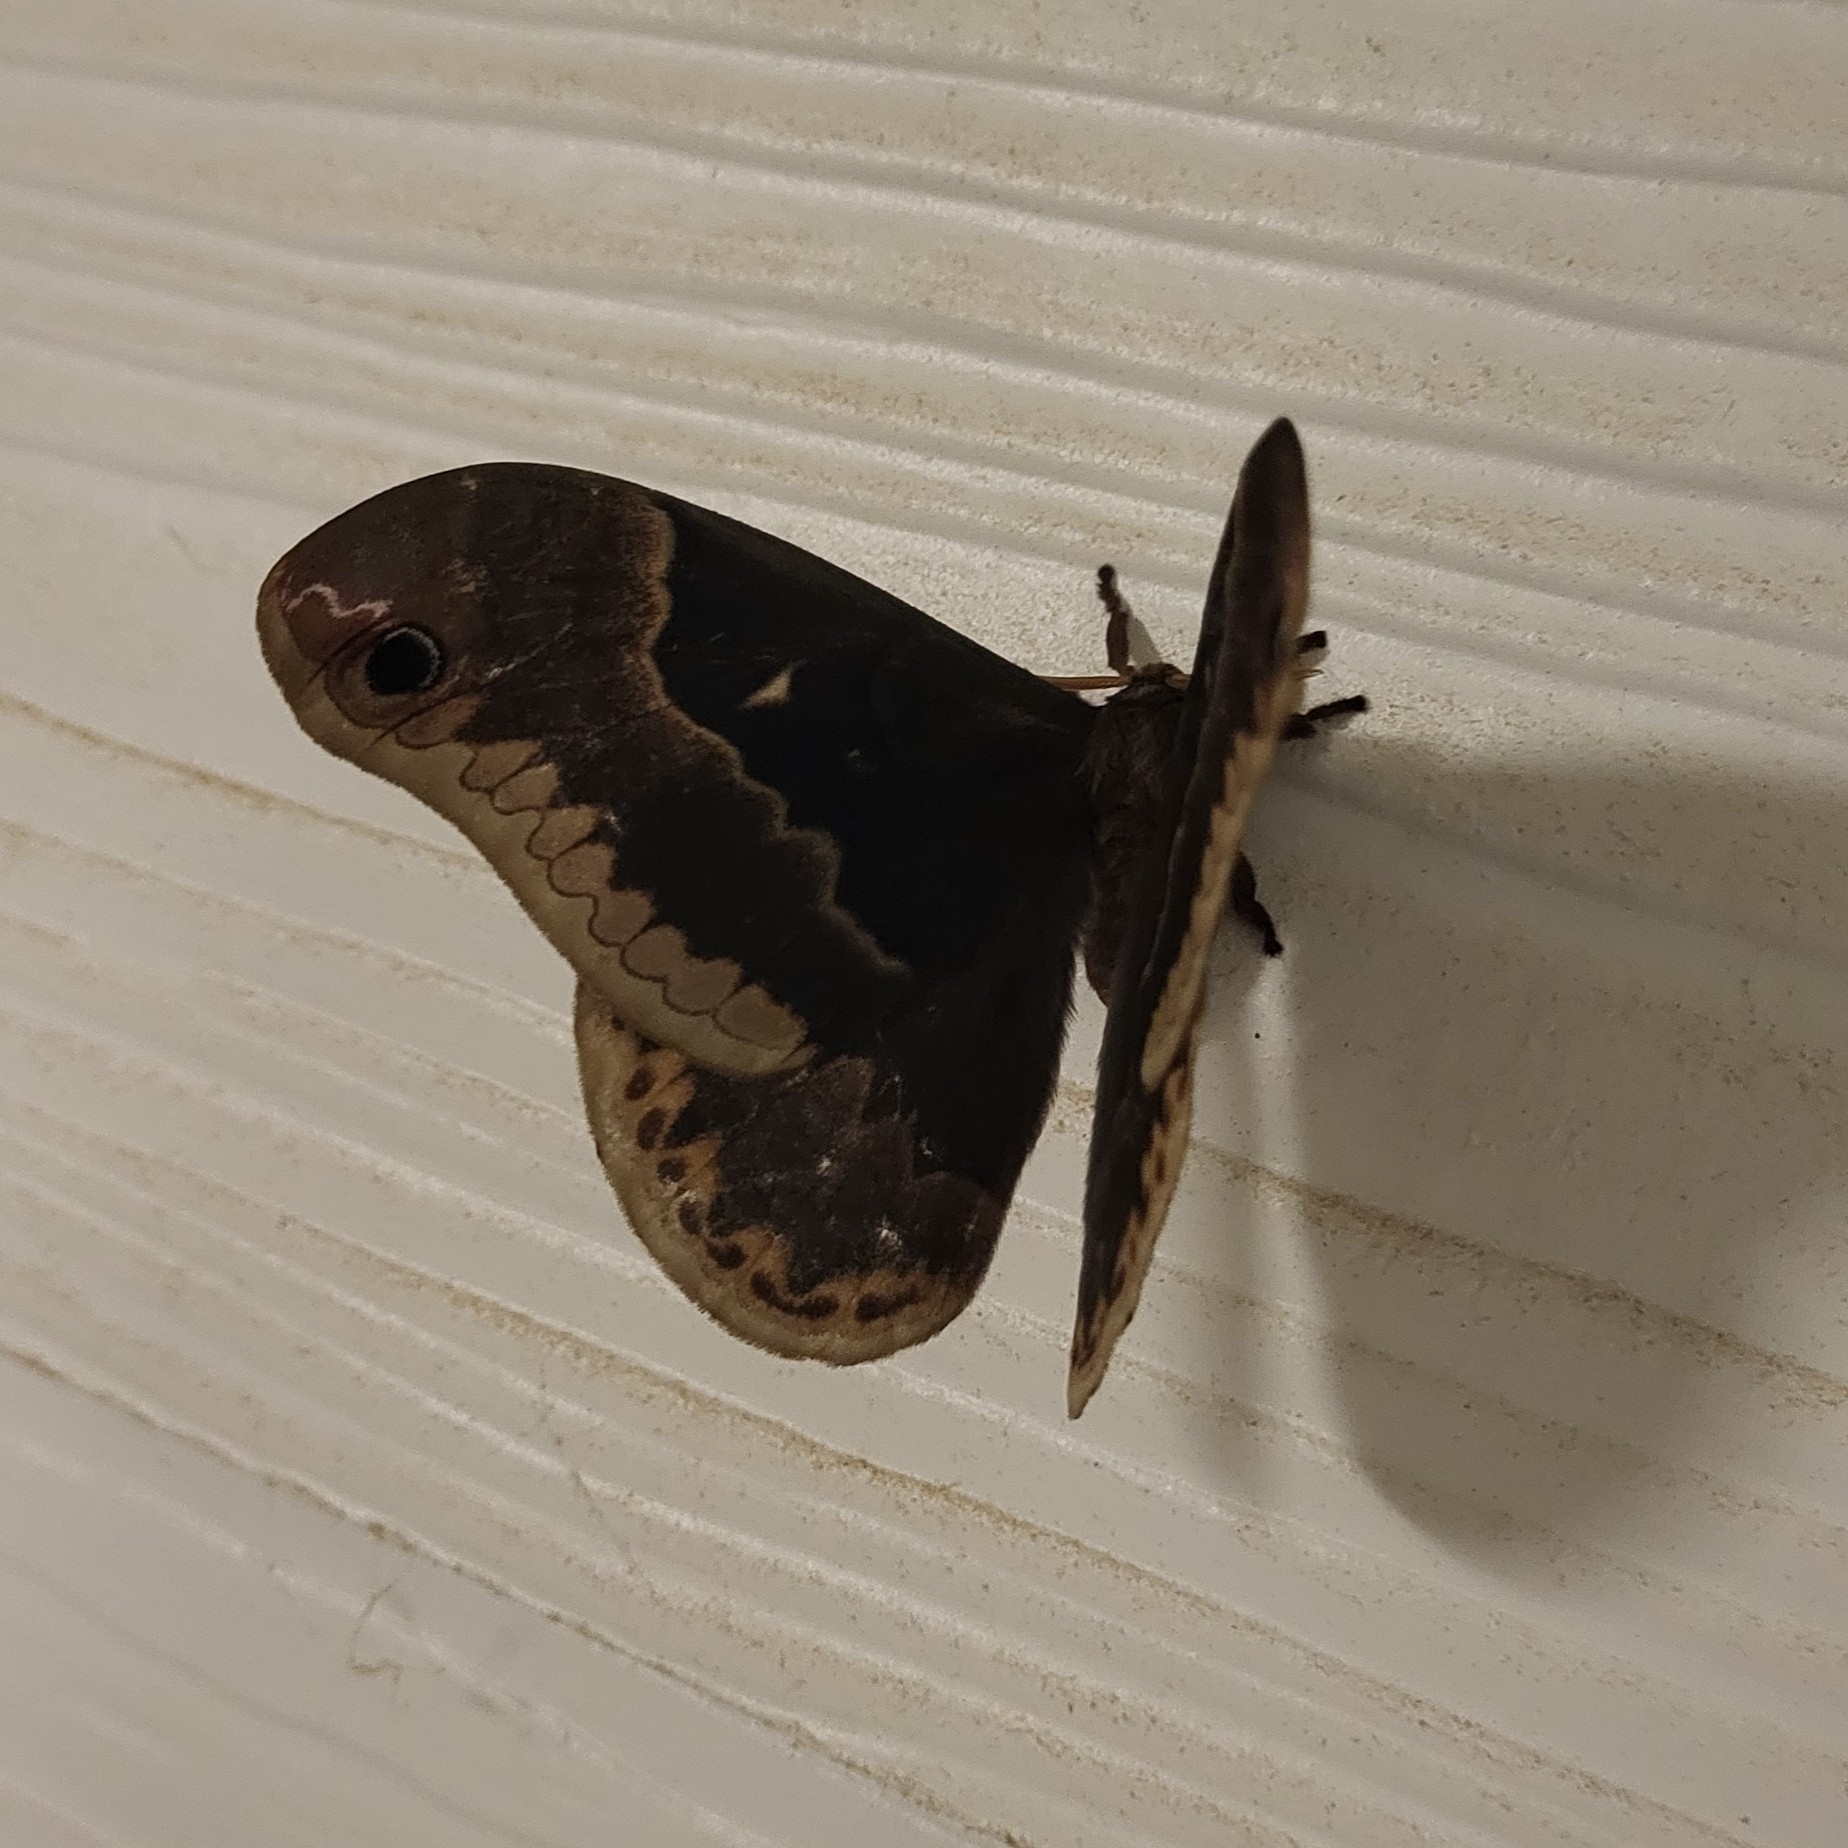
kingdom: Animalia
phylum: Arthropoda
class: Insecta
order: Lepidoptera
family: Saturniidae
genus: Callosamia
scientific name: Callosamia angulifera
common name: Tulip tree silkmoth
